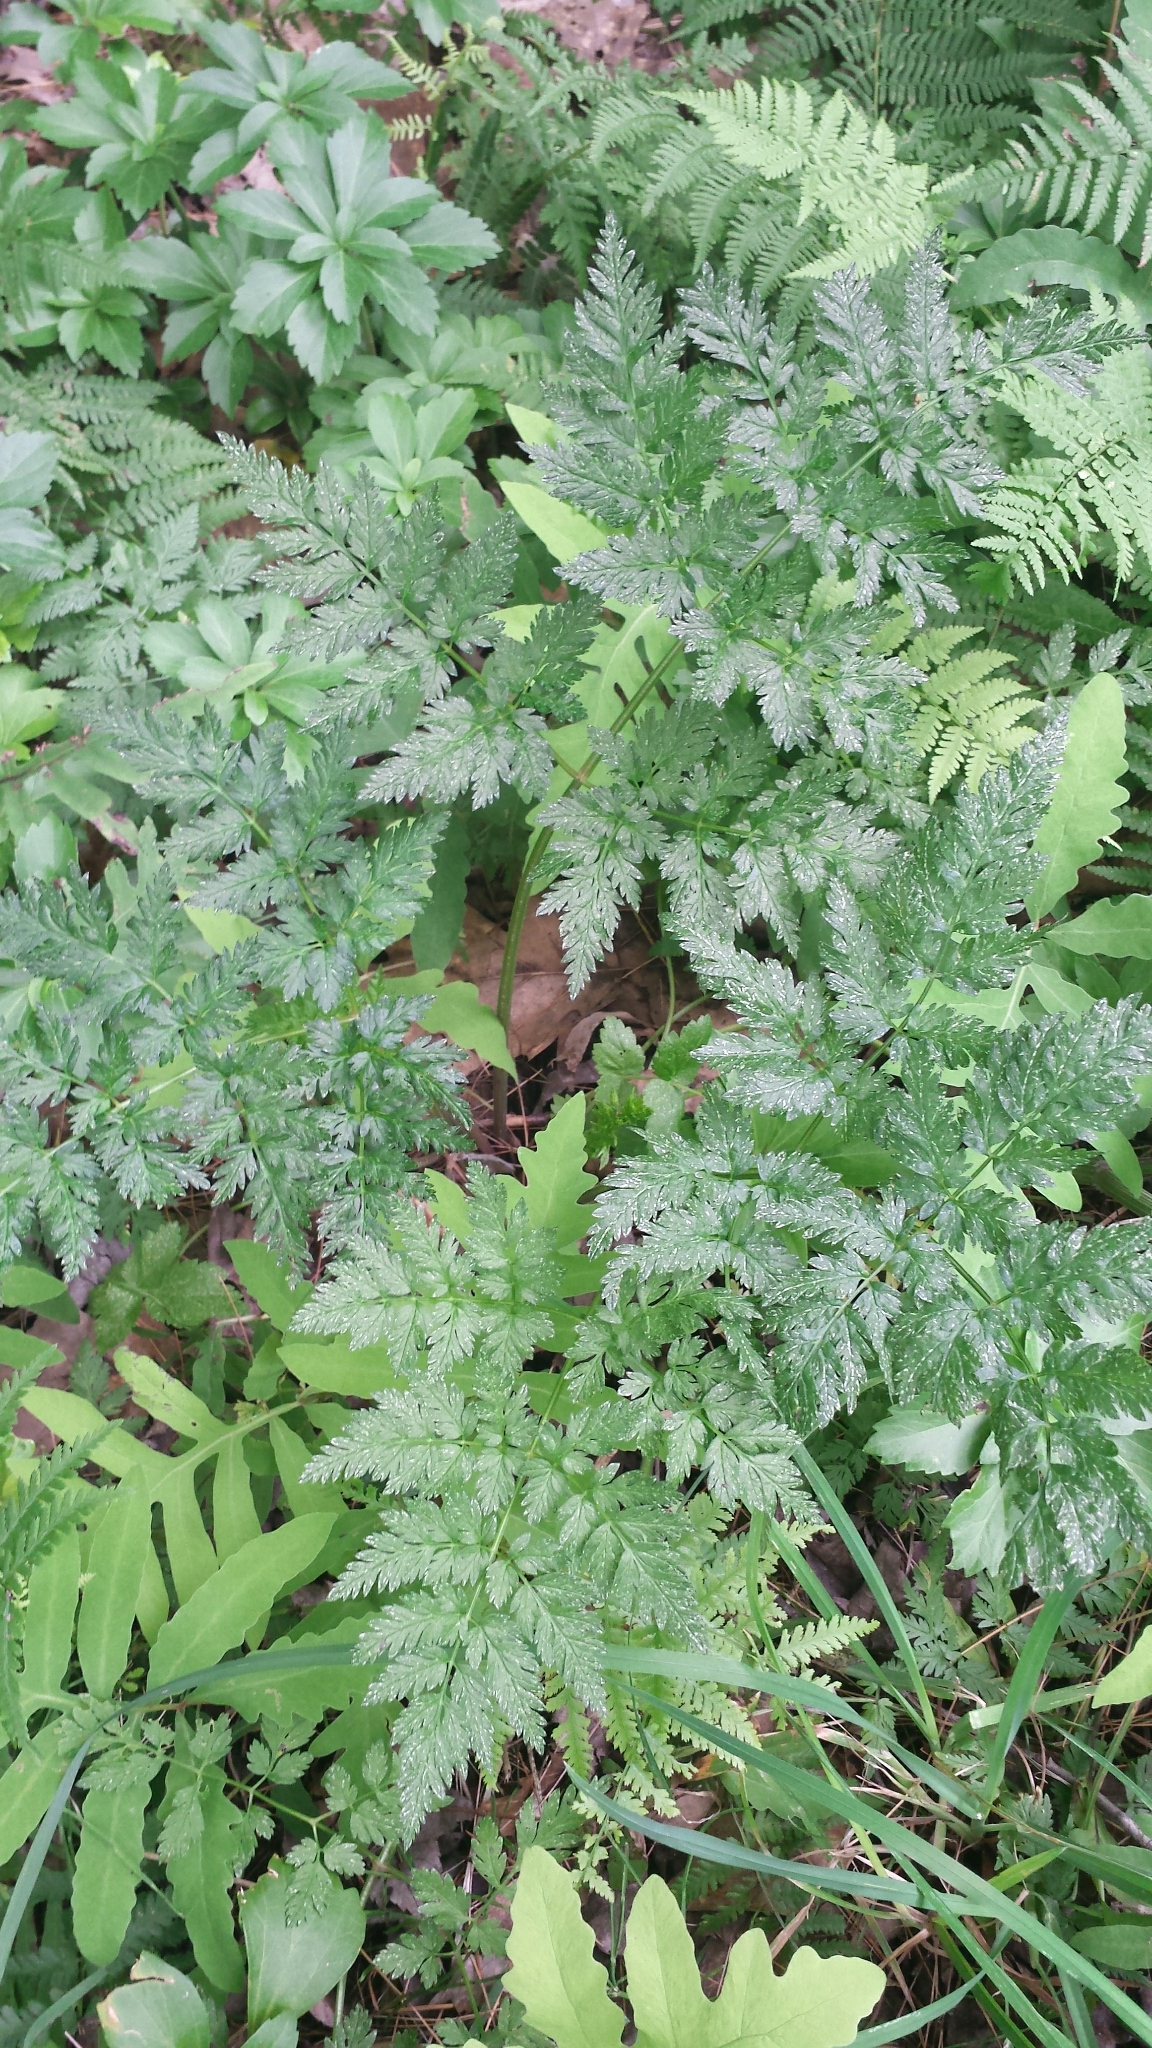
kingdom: Plantae
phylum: Tracheophyta
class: Magnoliopsida
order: Apiales
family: Apiaceae
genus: Anthriscus
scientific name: Anthriscus sylvestris
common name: Cow parsley
